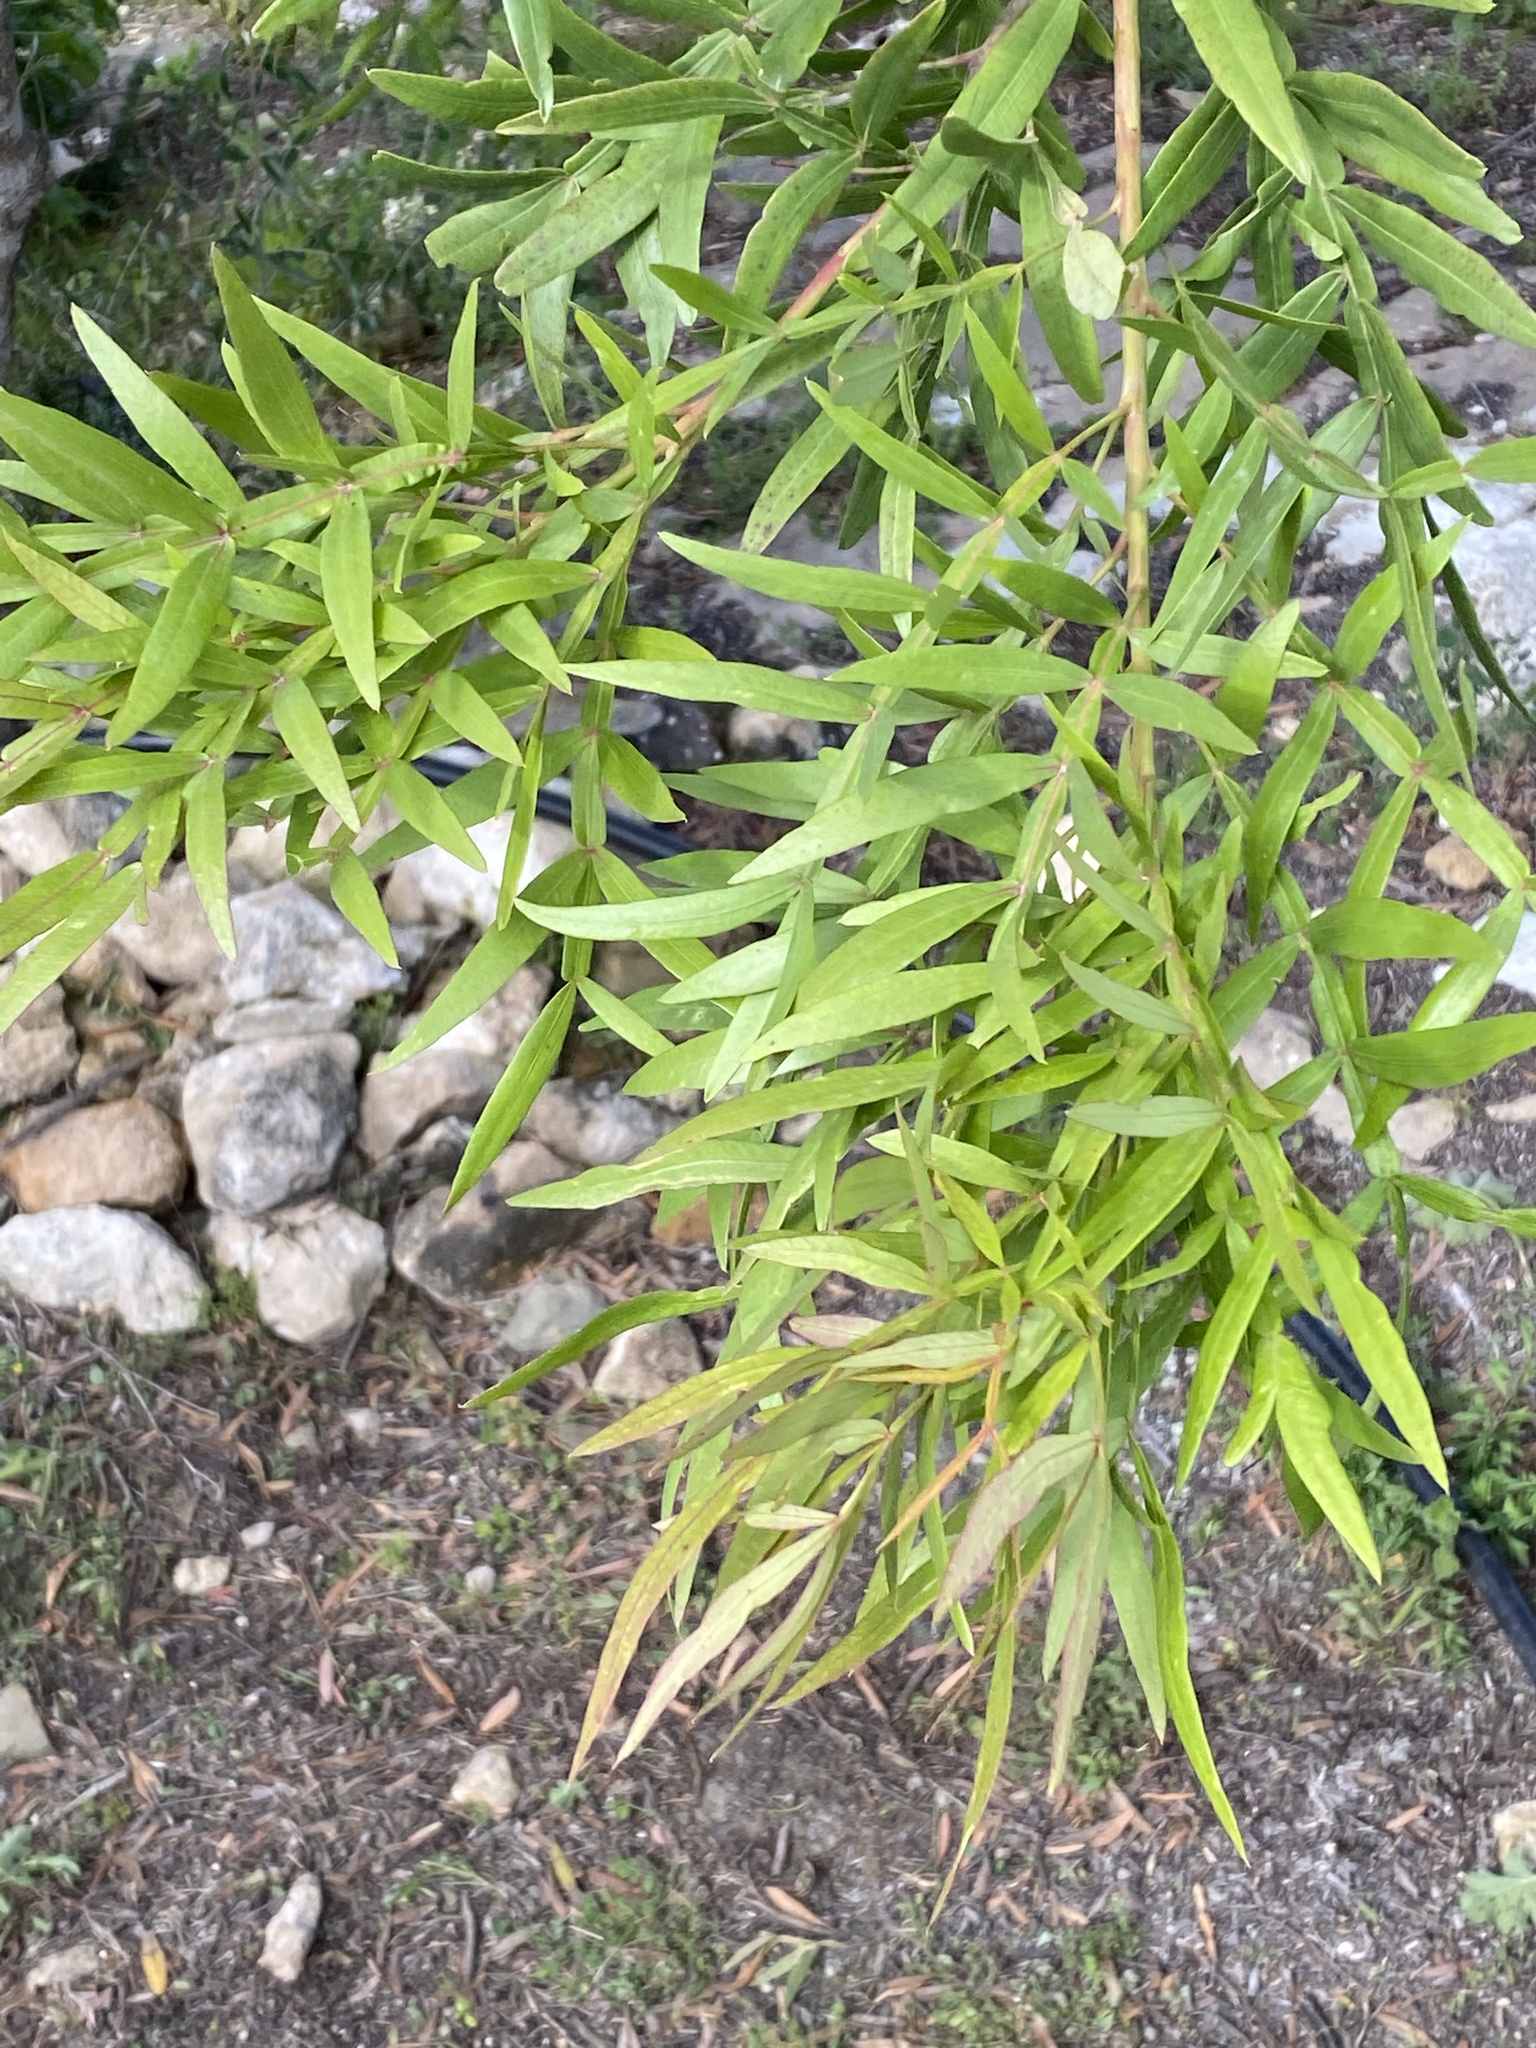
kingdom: Plantae
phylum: Tracheophyta
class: Magnoliopsida
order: Sapindales
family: Anacardiaceae
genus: Loxostylis
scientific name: Loxostylis alata
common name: Wild peppertree
